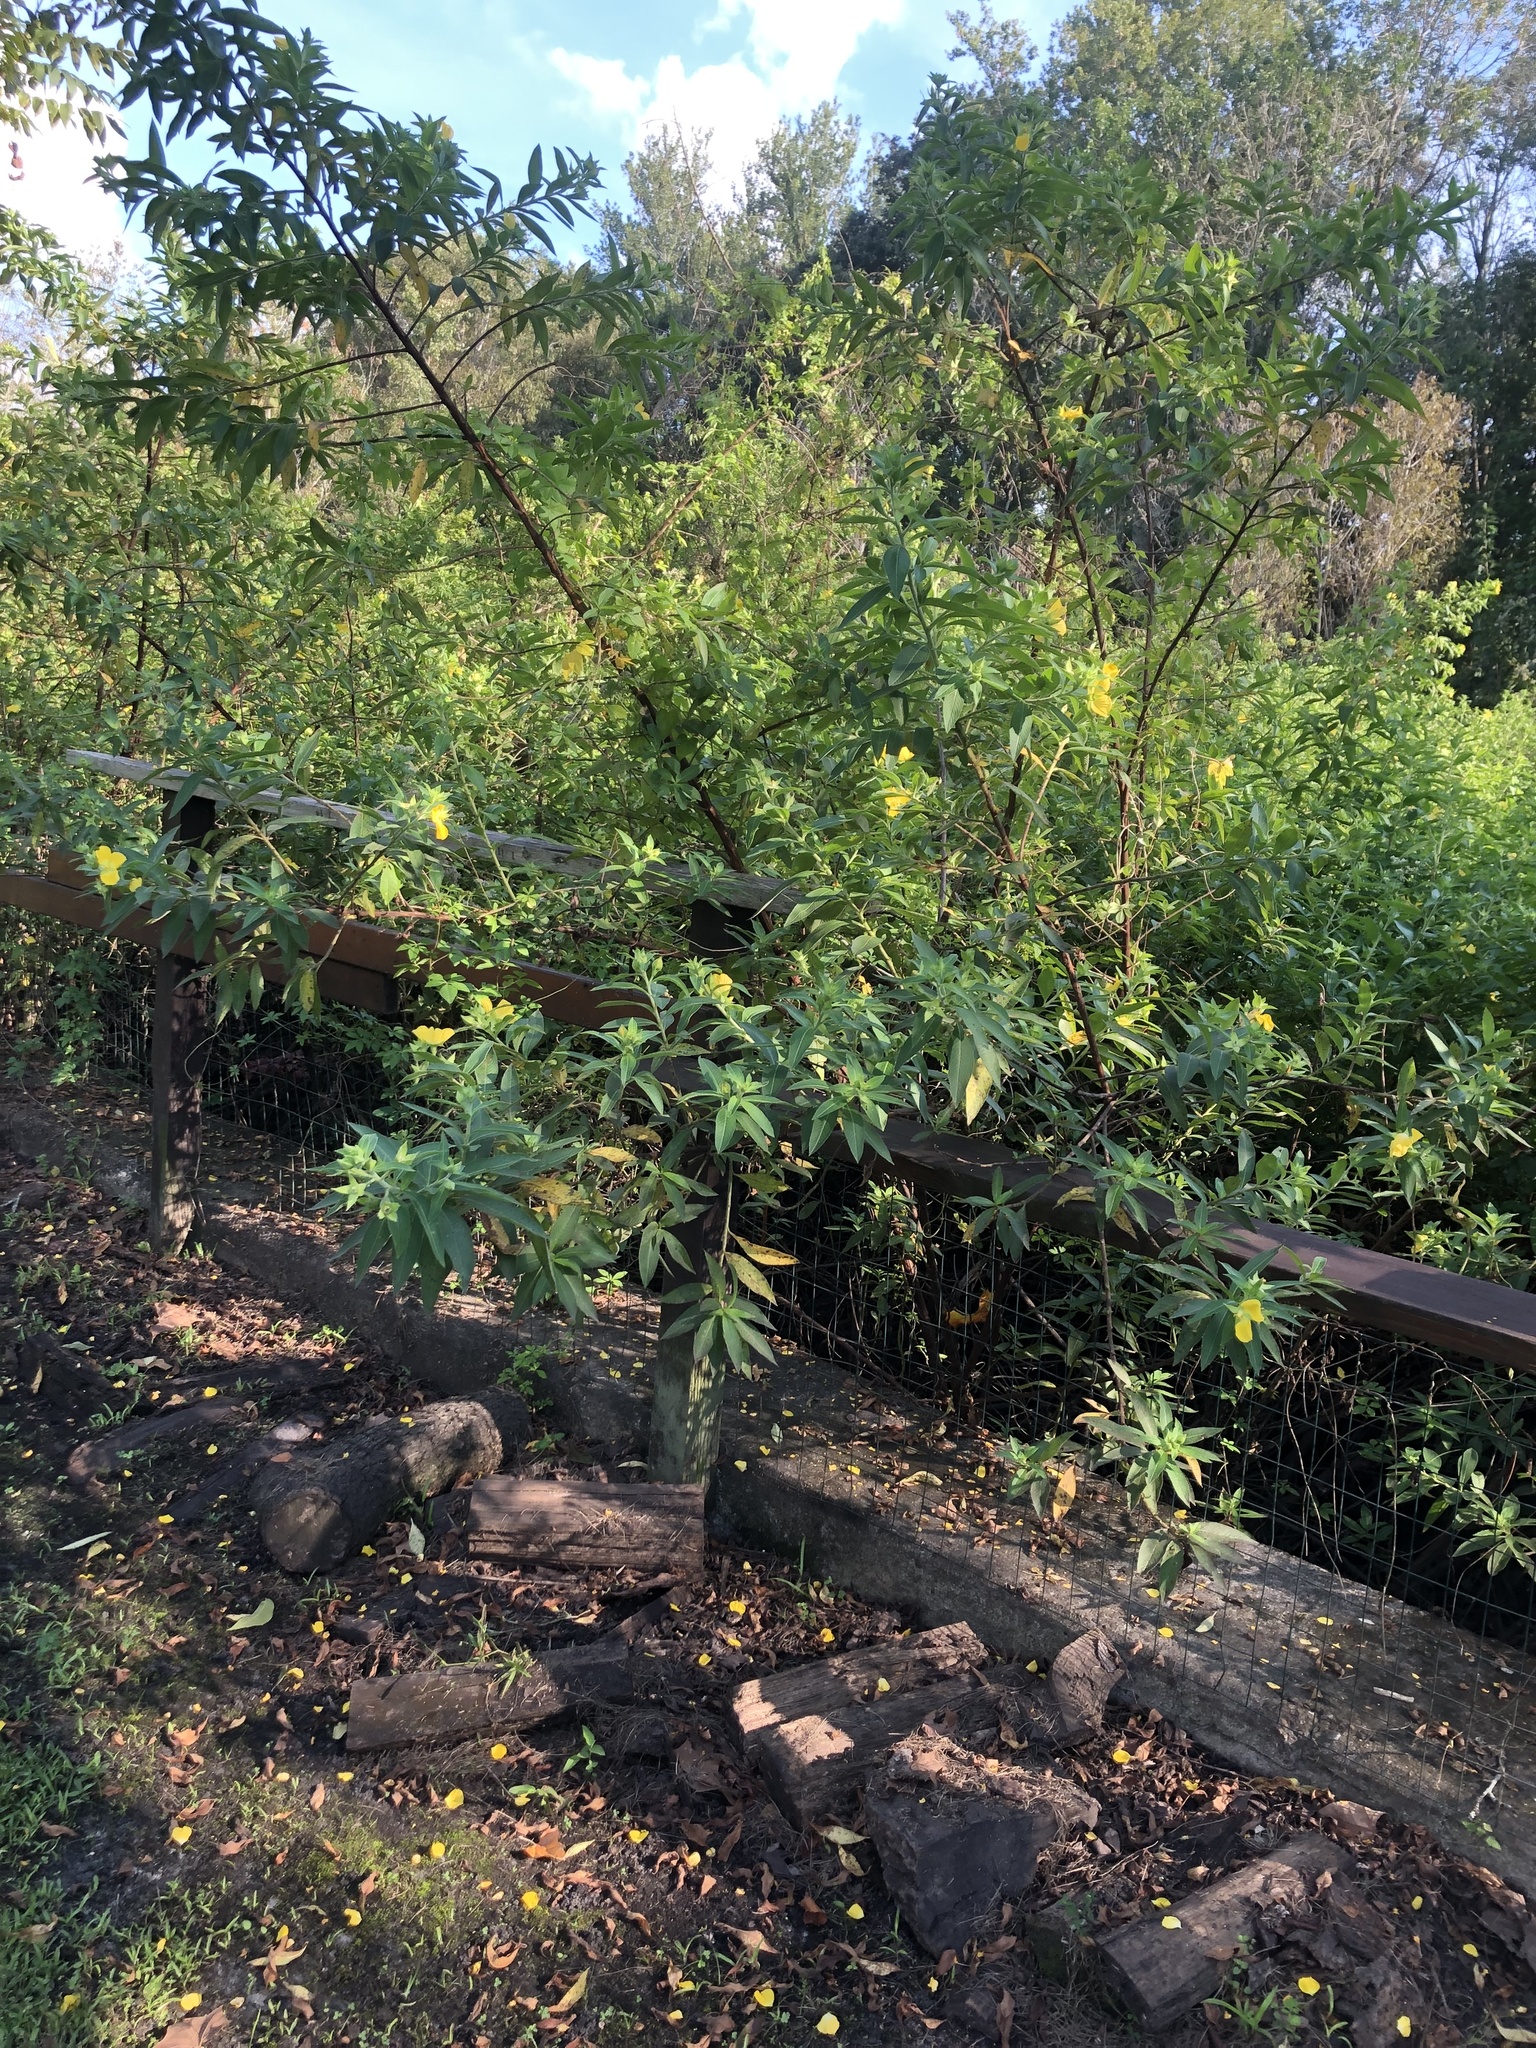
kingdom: Plantae
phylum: Tracheophyta
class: Magnoliopsida
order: Myrtales
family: Onagraceae
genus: Ludwigia
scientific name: Ludwigia peruviana
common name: Peruvian primrose-willow
